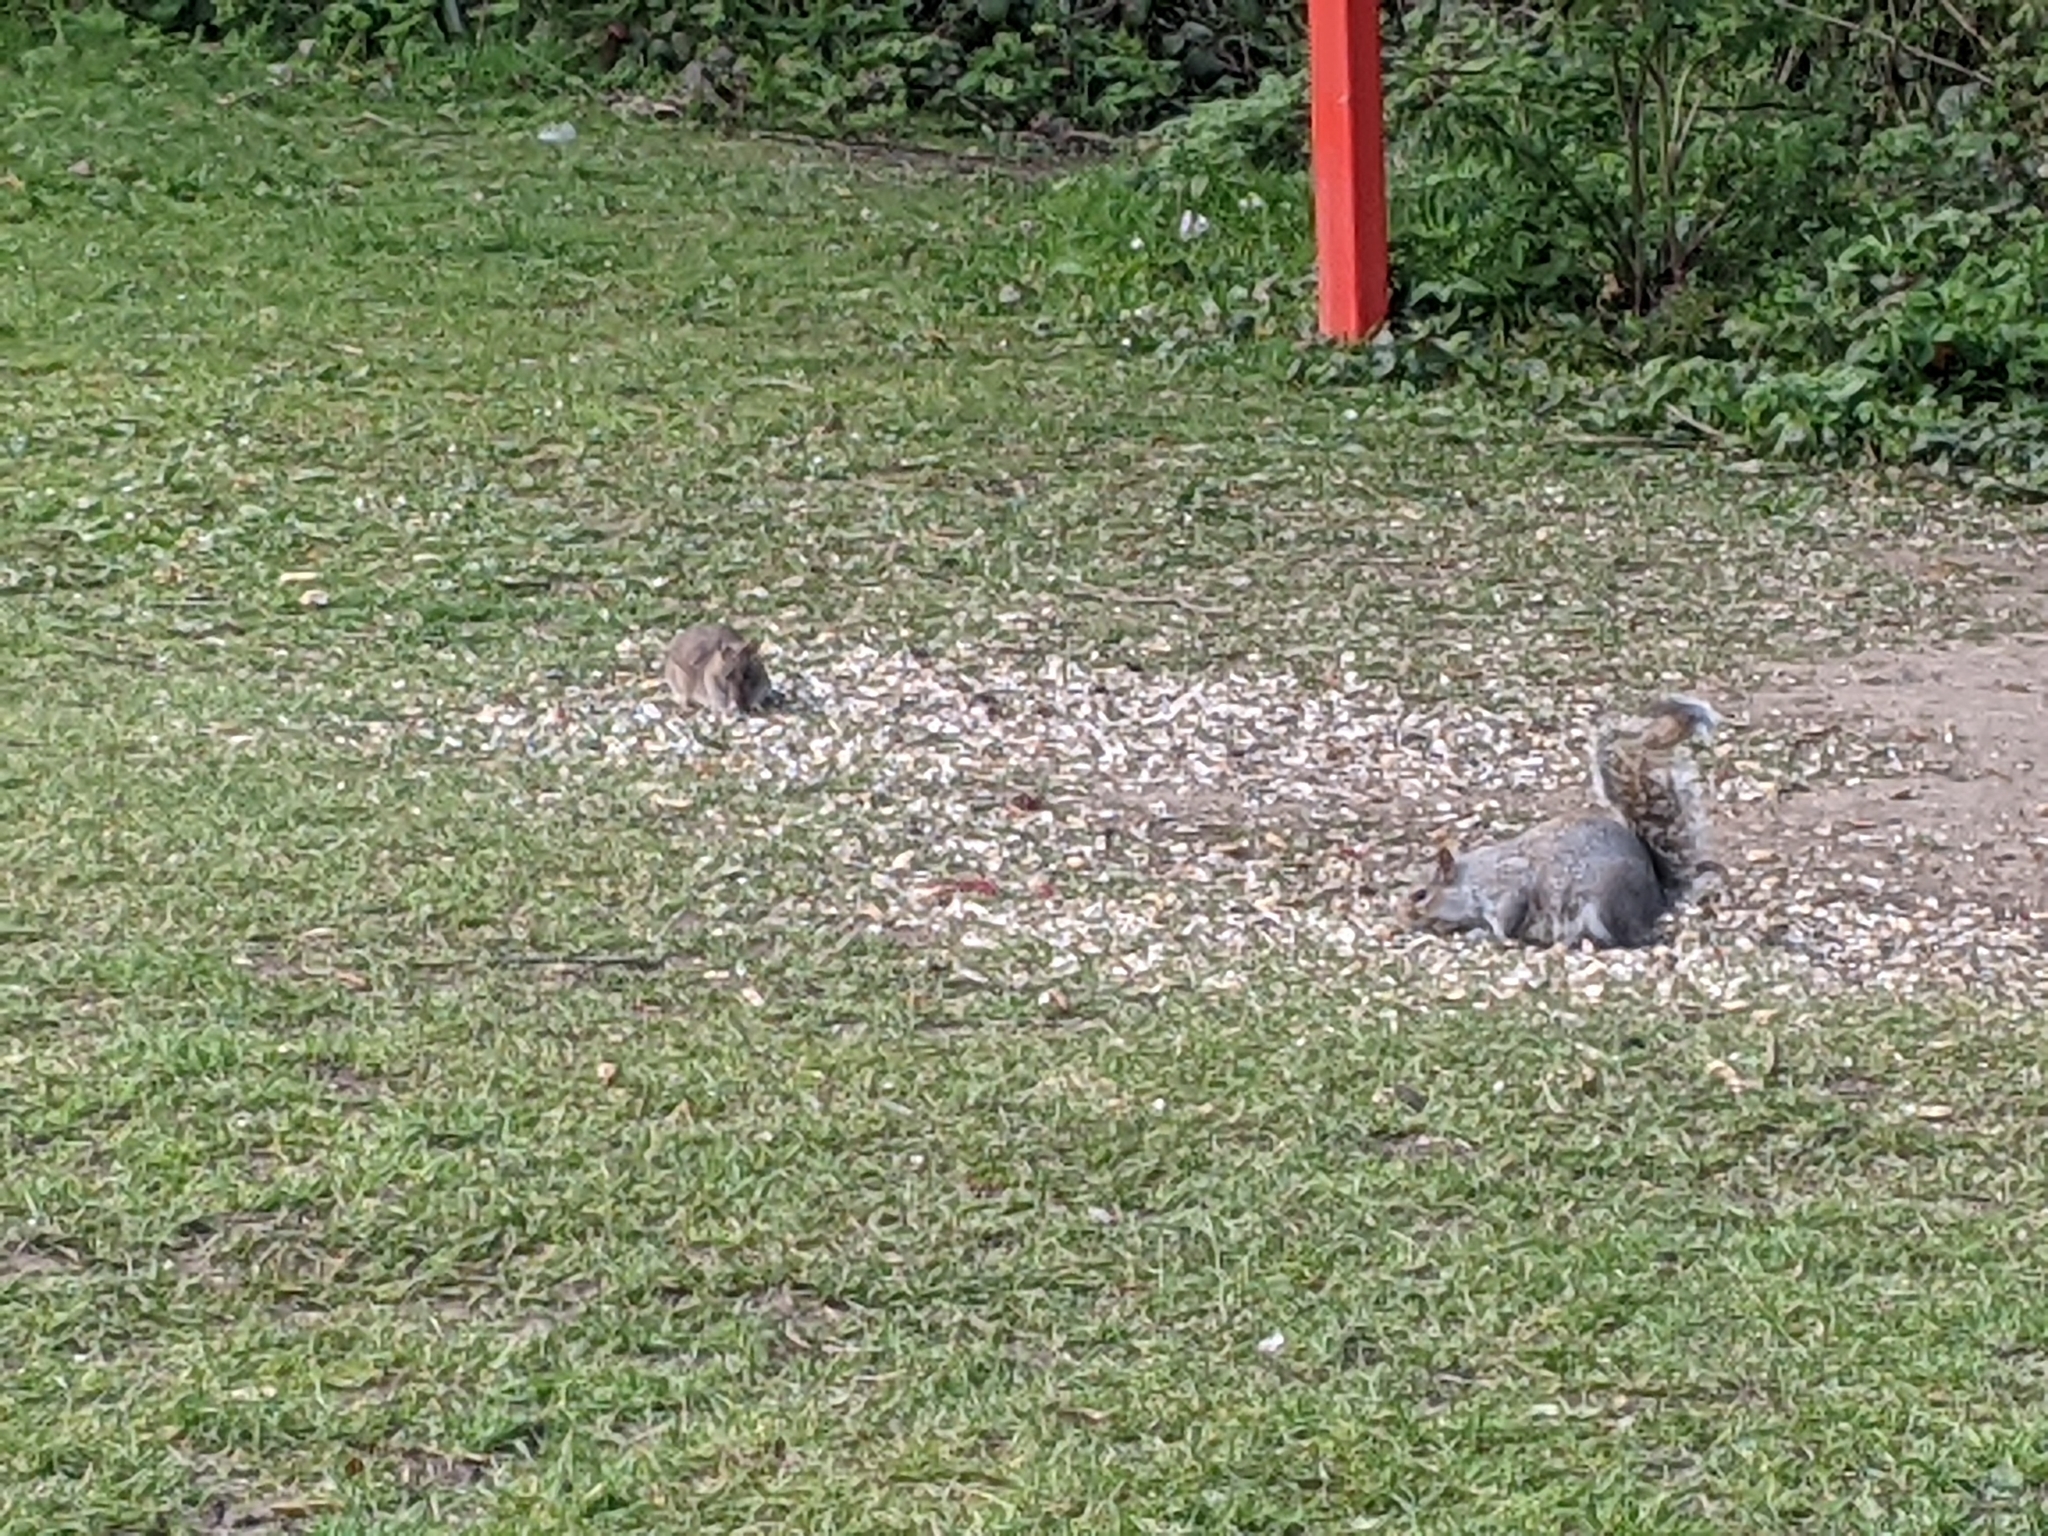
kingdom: Animalia
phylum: Chordata
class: Mammalia
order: Rodentia
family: Muridae
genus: Rattus
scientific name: Rattus norvegicus
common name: Brown rat
